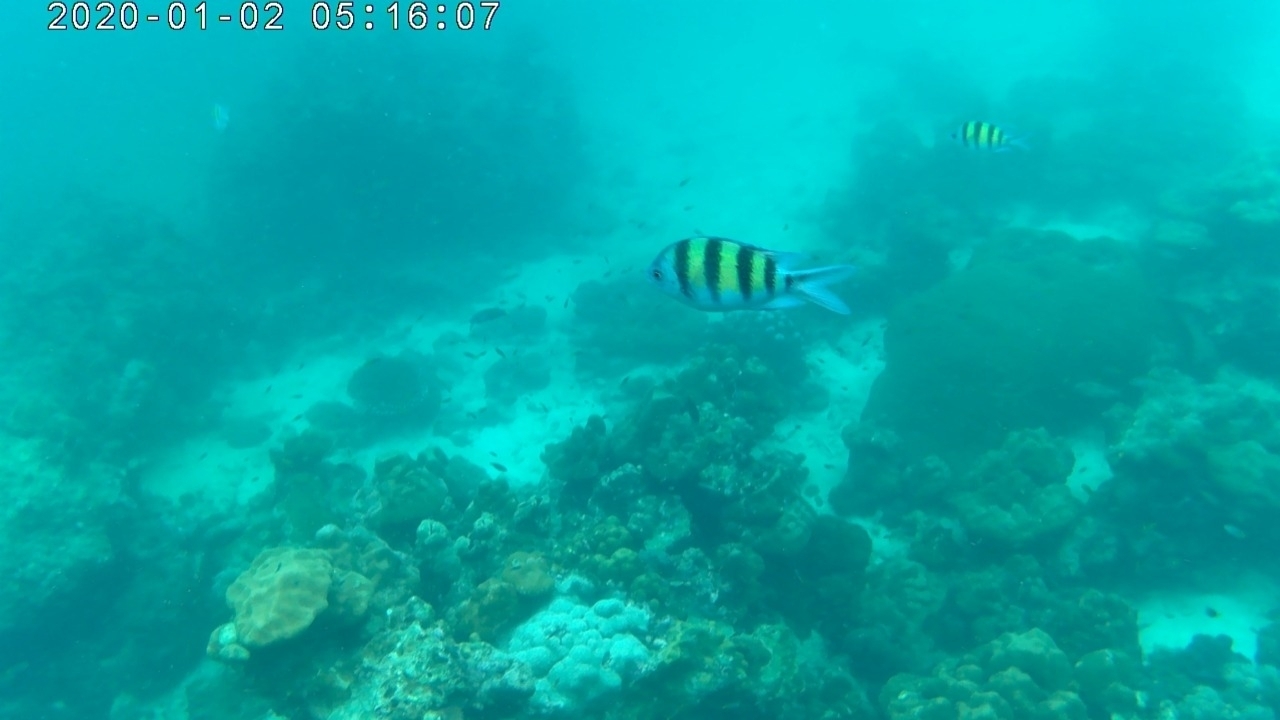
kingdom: Animalia
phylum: Chordata
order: Perciformes
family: Pomacentridae
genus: Abudefduf
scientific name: Abudefduf vaigiensis
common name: Indo-pacific sergeant
